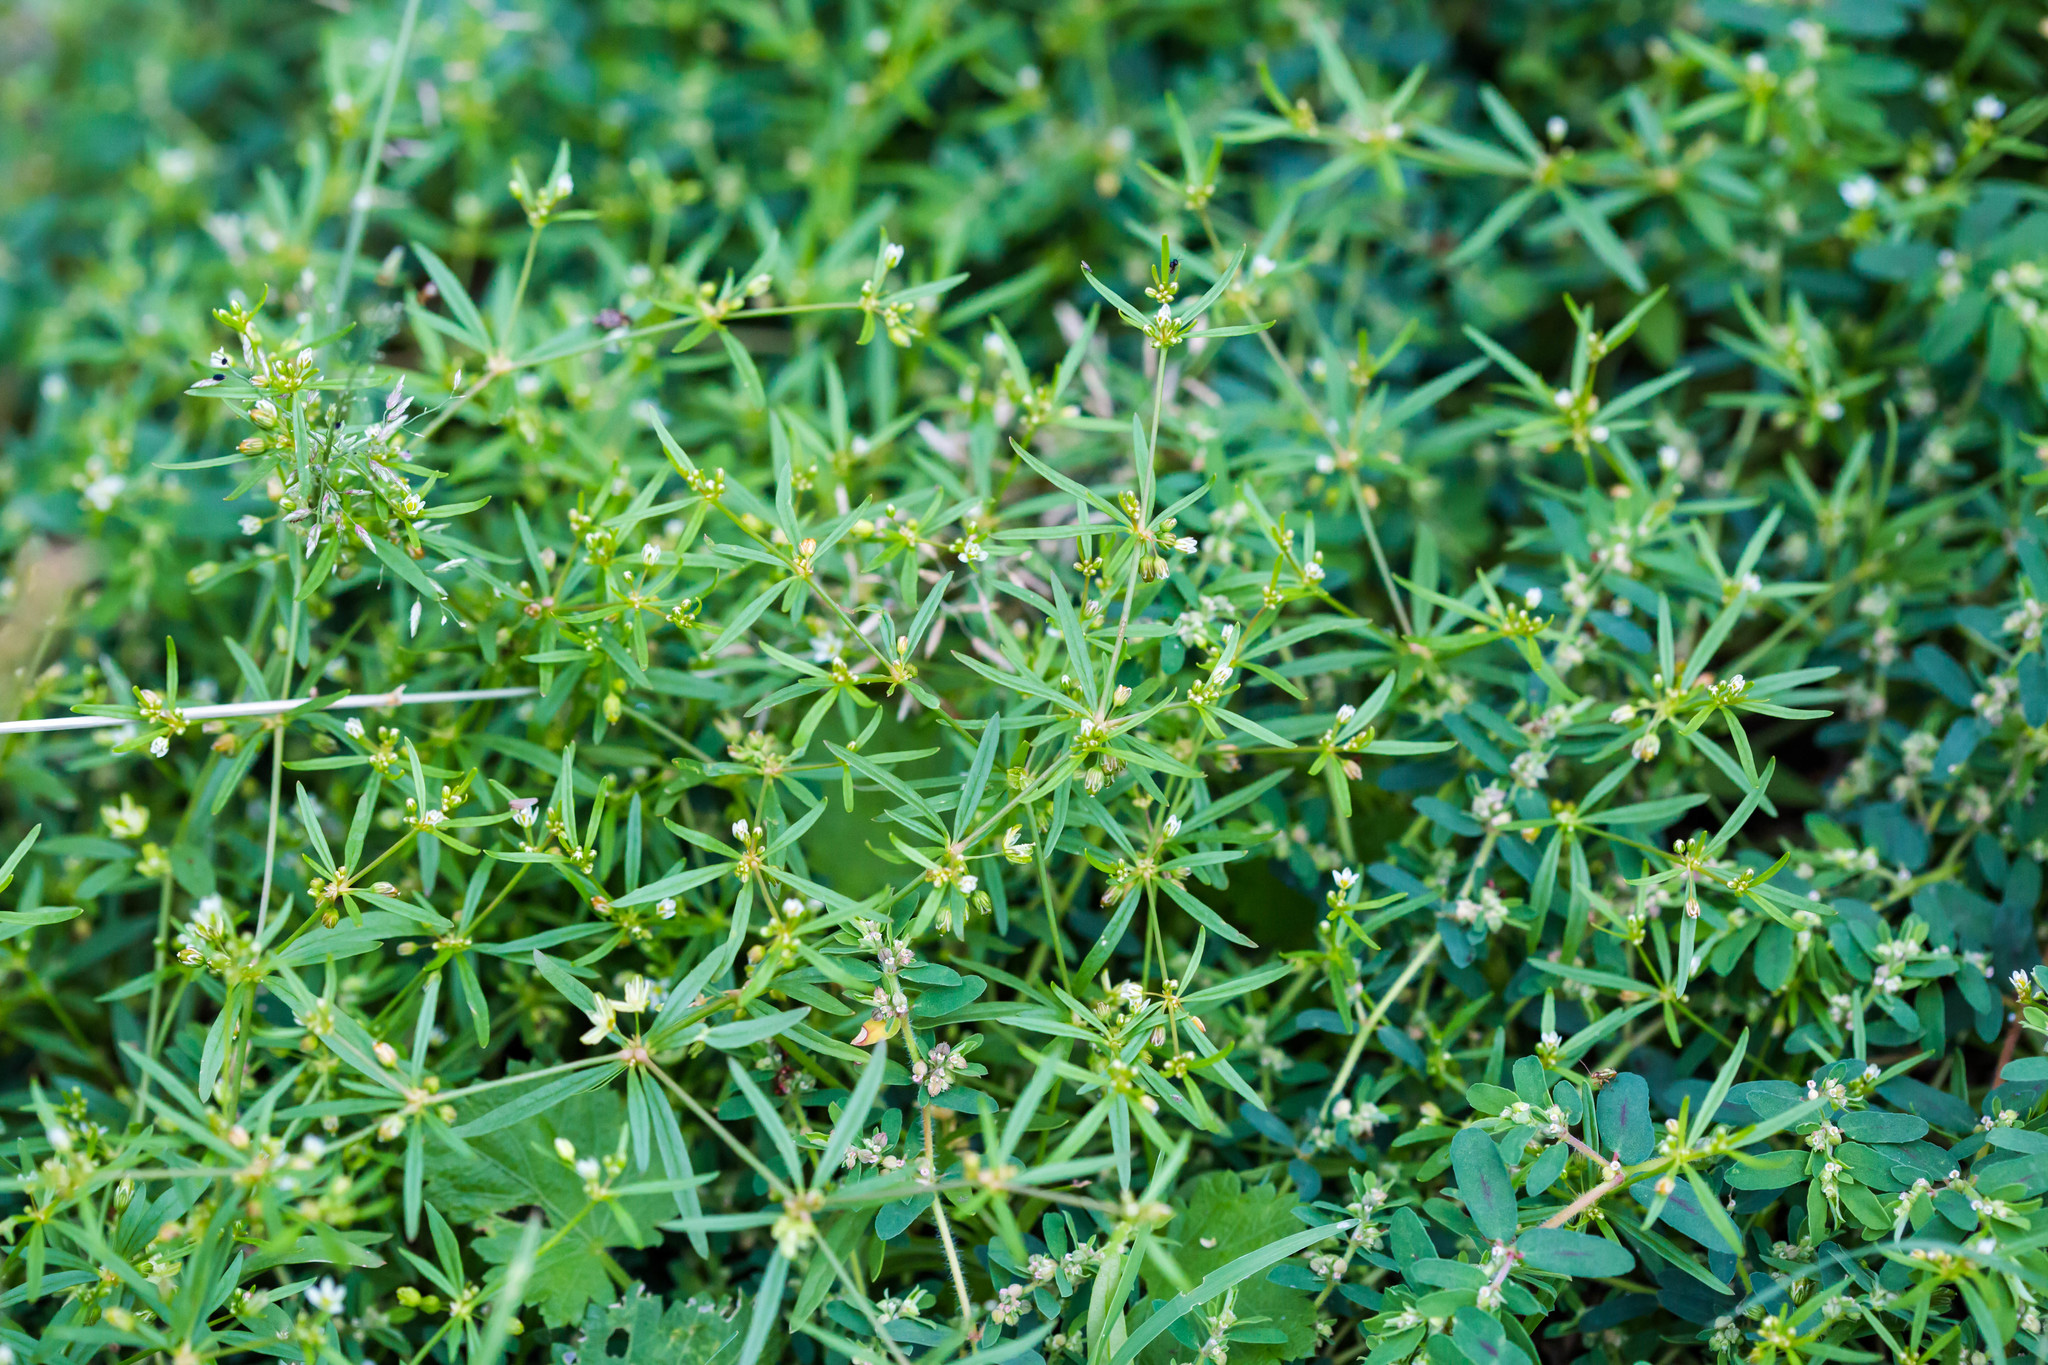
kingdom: Plantae
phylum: Tracheophyta
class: Magnoliopsida
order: Caryophyllales
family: Molluginaceae
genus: Mollugo
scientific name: Mollugo verticillata
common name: Green carpetweed
